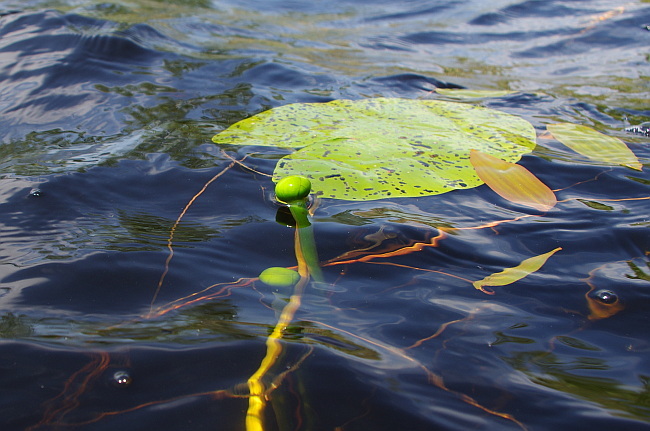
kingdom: Plantae
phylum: Tracheophyta
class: Magnoliopsida
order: Nymphaeales
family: Nymphaeaceae
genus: Nuphar
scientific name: Nuphar lutea
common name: Yellow water-lily
